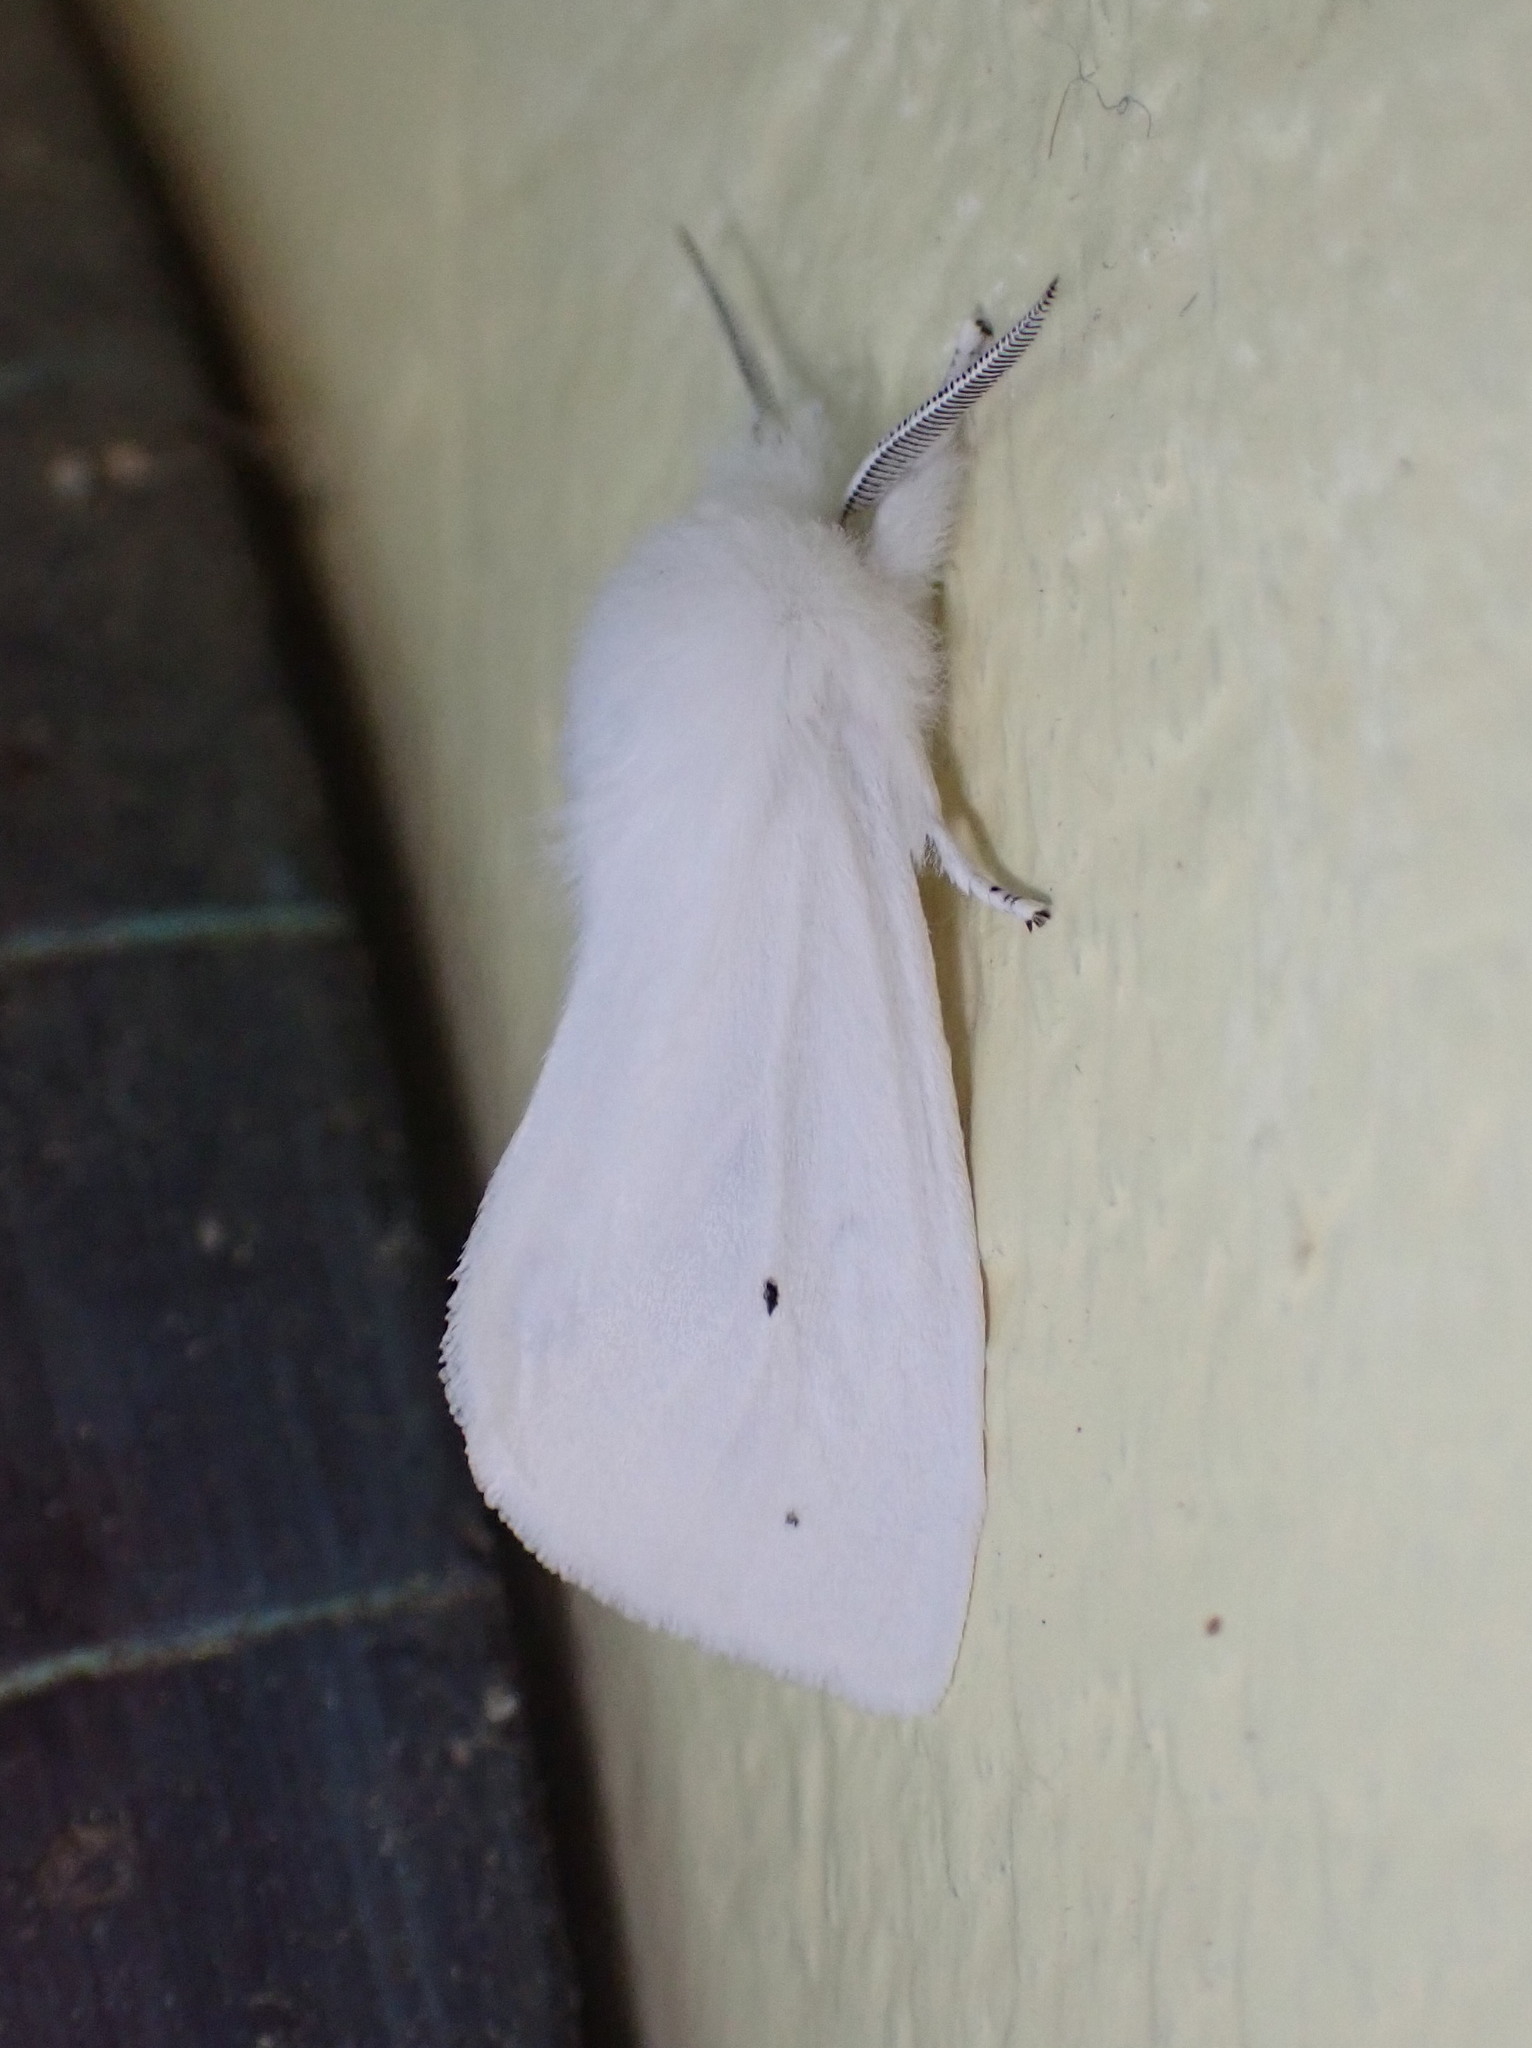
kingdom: Animalia
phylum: Arthropoda
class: Insecta
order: Lepidoptera
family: Erebidae
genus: Spilosoma
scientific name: Spilosoma virginica
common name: Virginia tiger moth
